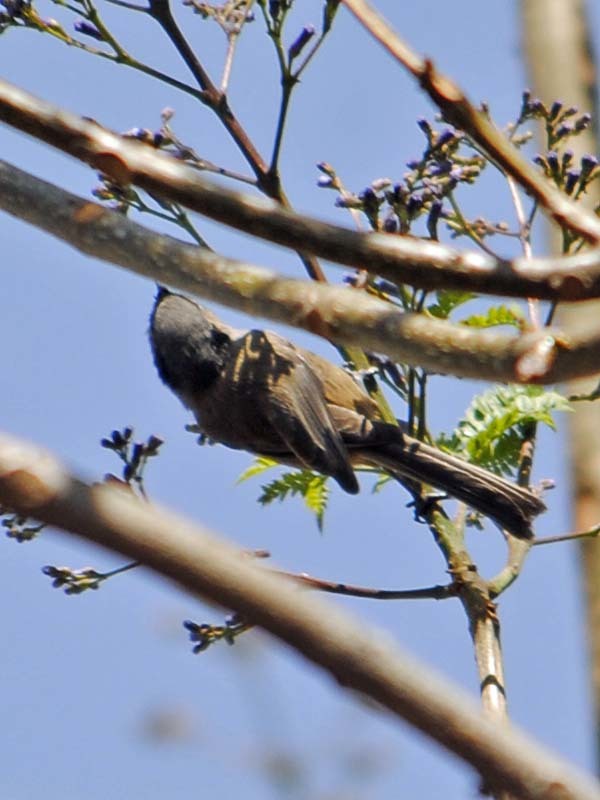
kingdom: Animalia
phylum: Chordata
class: Aves
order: Passeriformes
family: Aegithalidae
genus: Psaltriparus
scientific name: Psaltriparus minimus
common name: American bushtit
